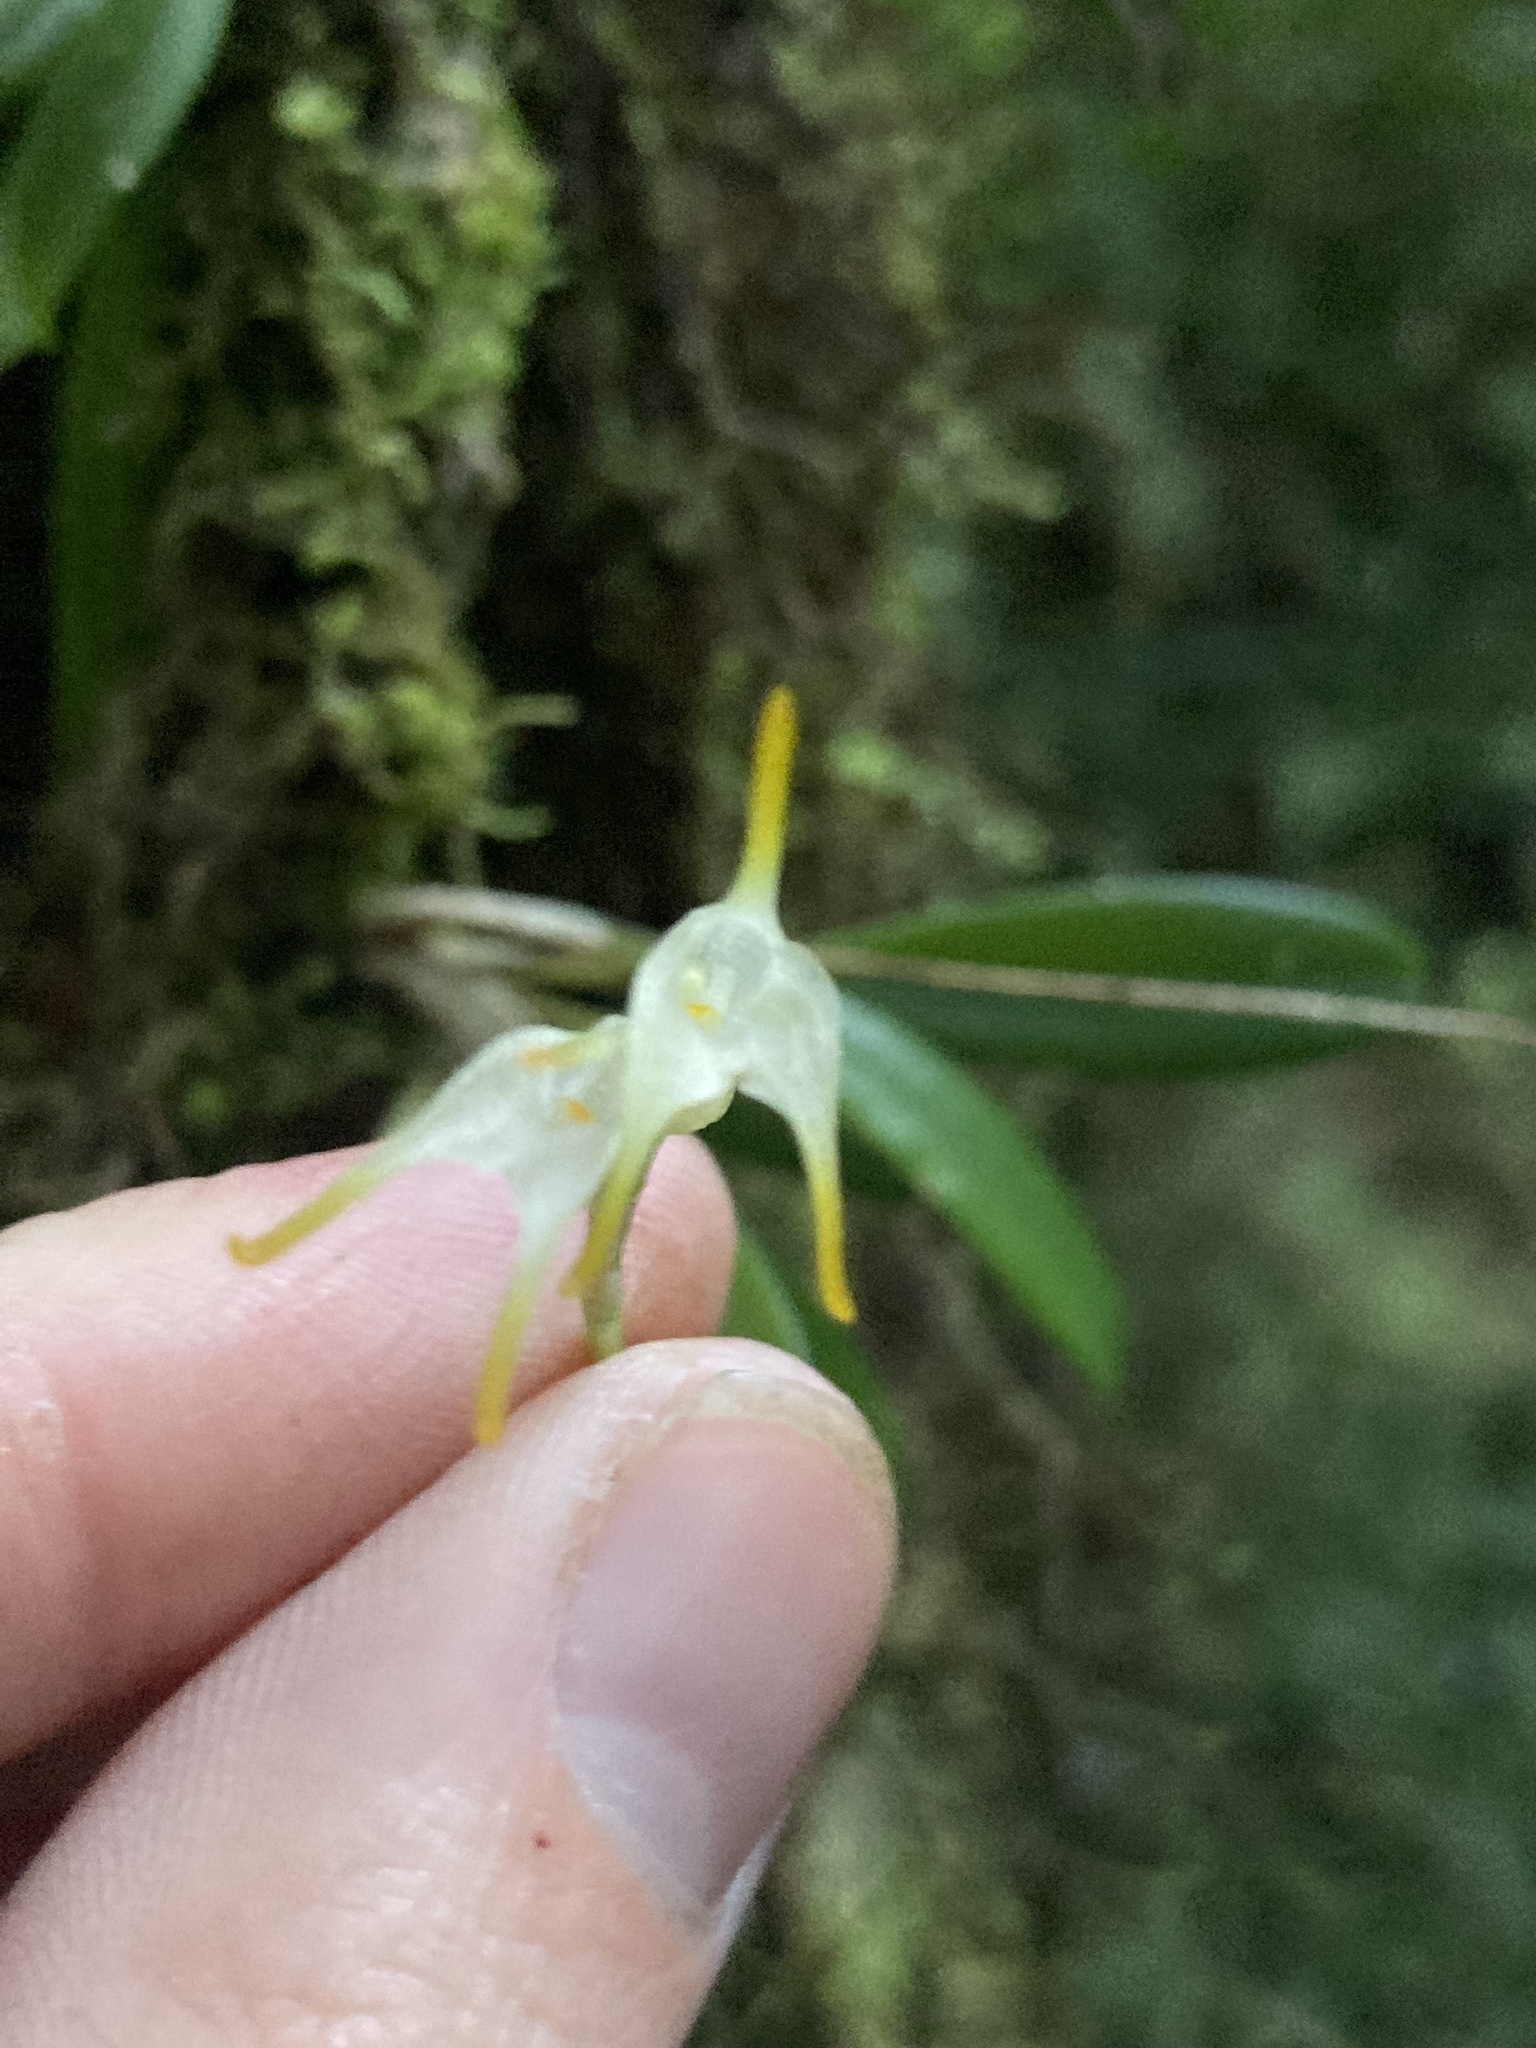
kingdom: Plantae
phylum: Tracheophyta
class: Liliopsida
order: Asparagales
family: Orchidaceae
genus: Masdevallia
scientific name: Masdevallia chontalensis
